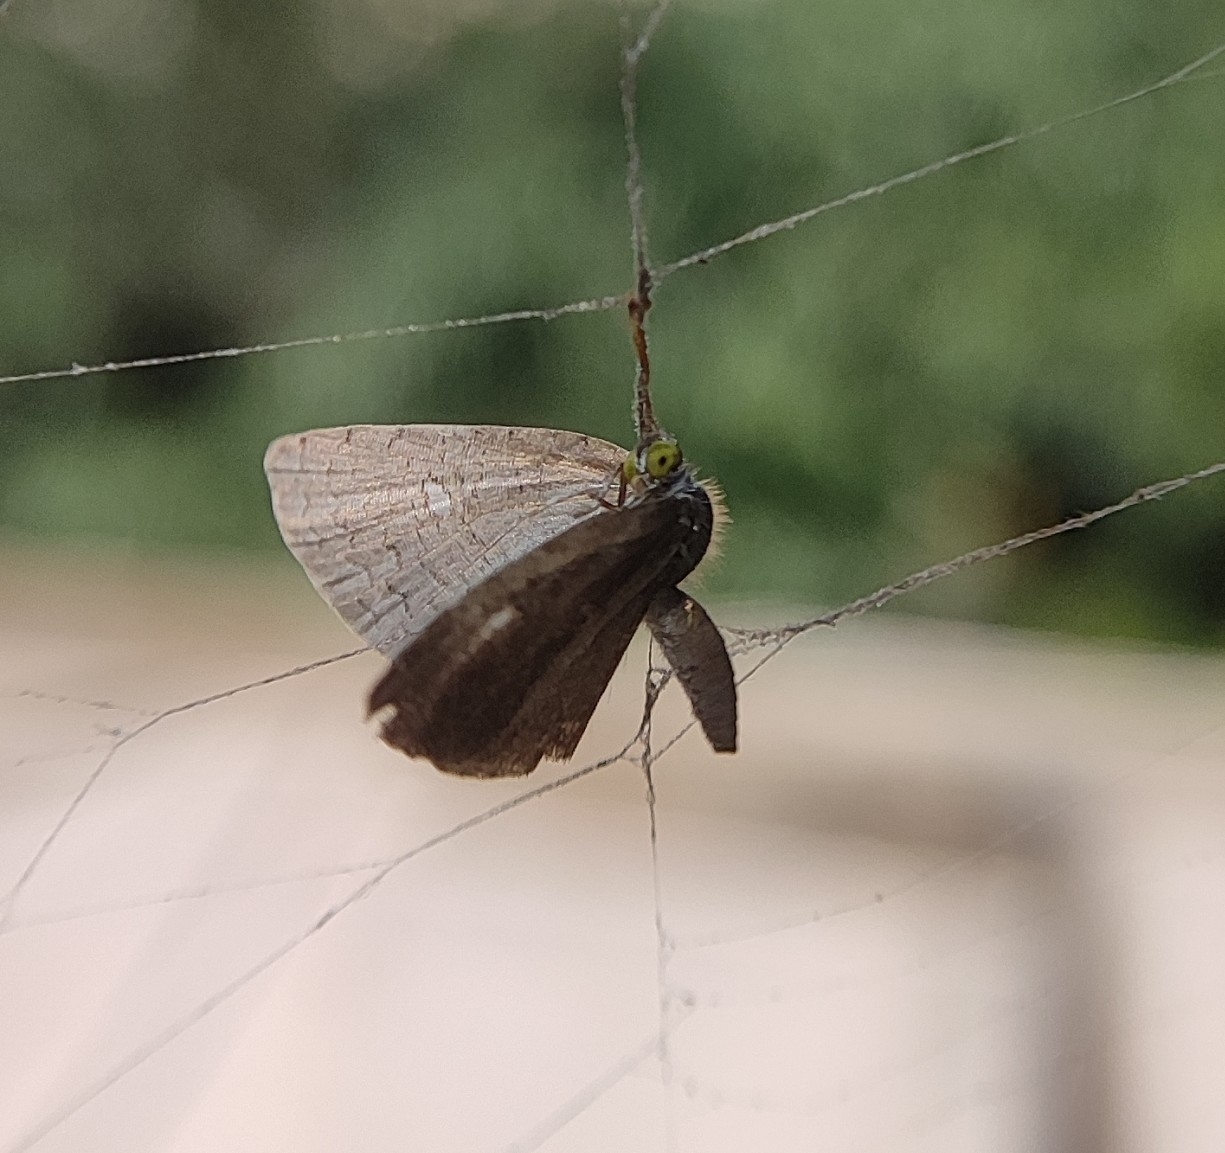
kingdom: Animalia
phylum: Arthropoda
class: Insecta
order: Lepidoptera
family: Lycaenidae
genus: Spalgis
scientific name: Spalgis epius
